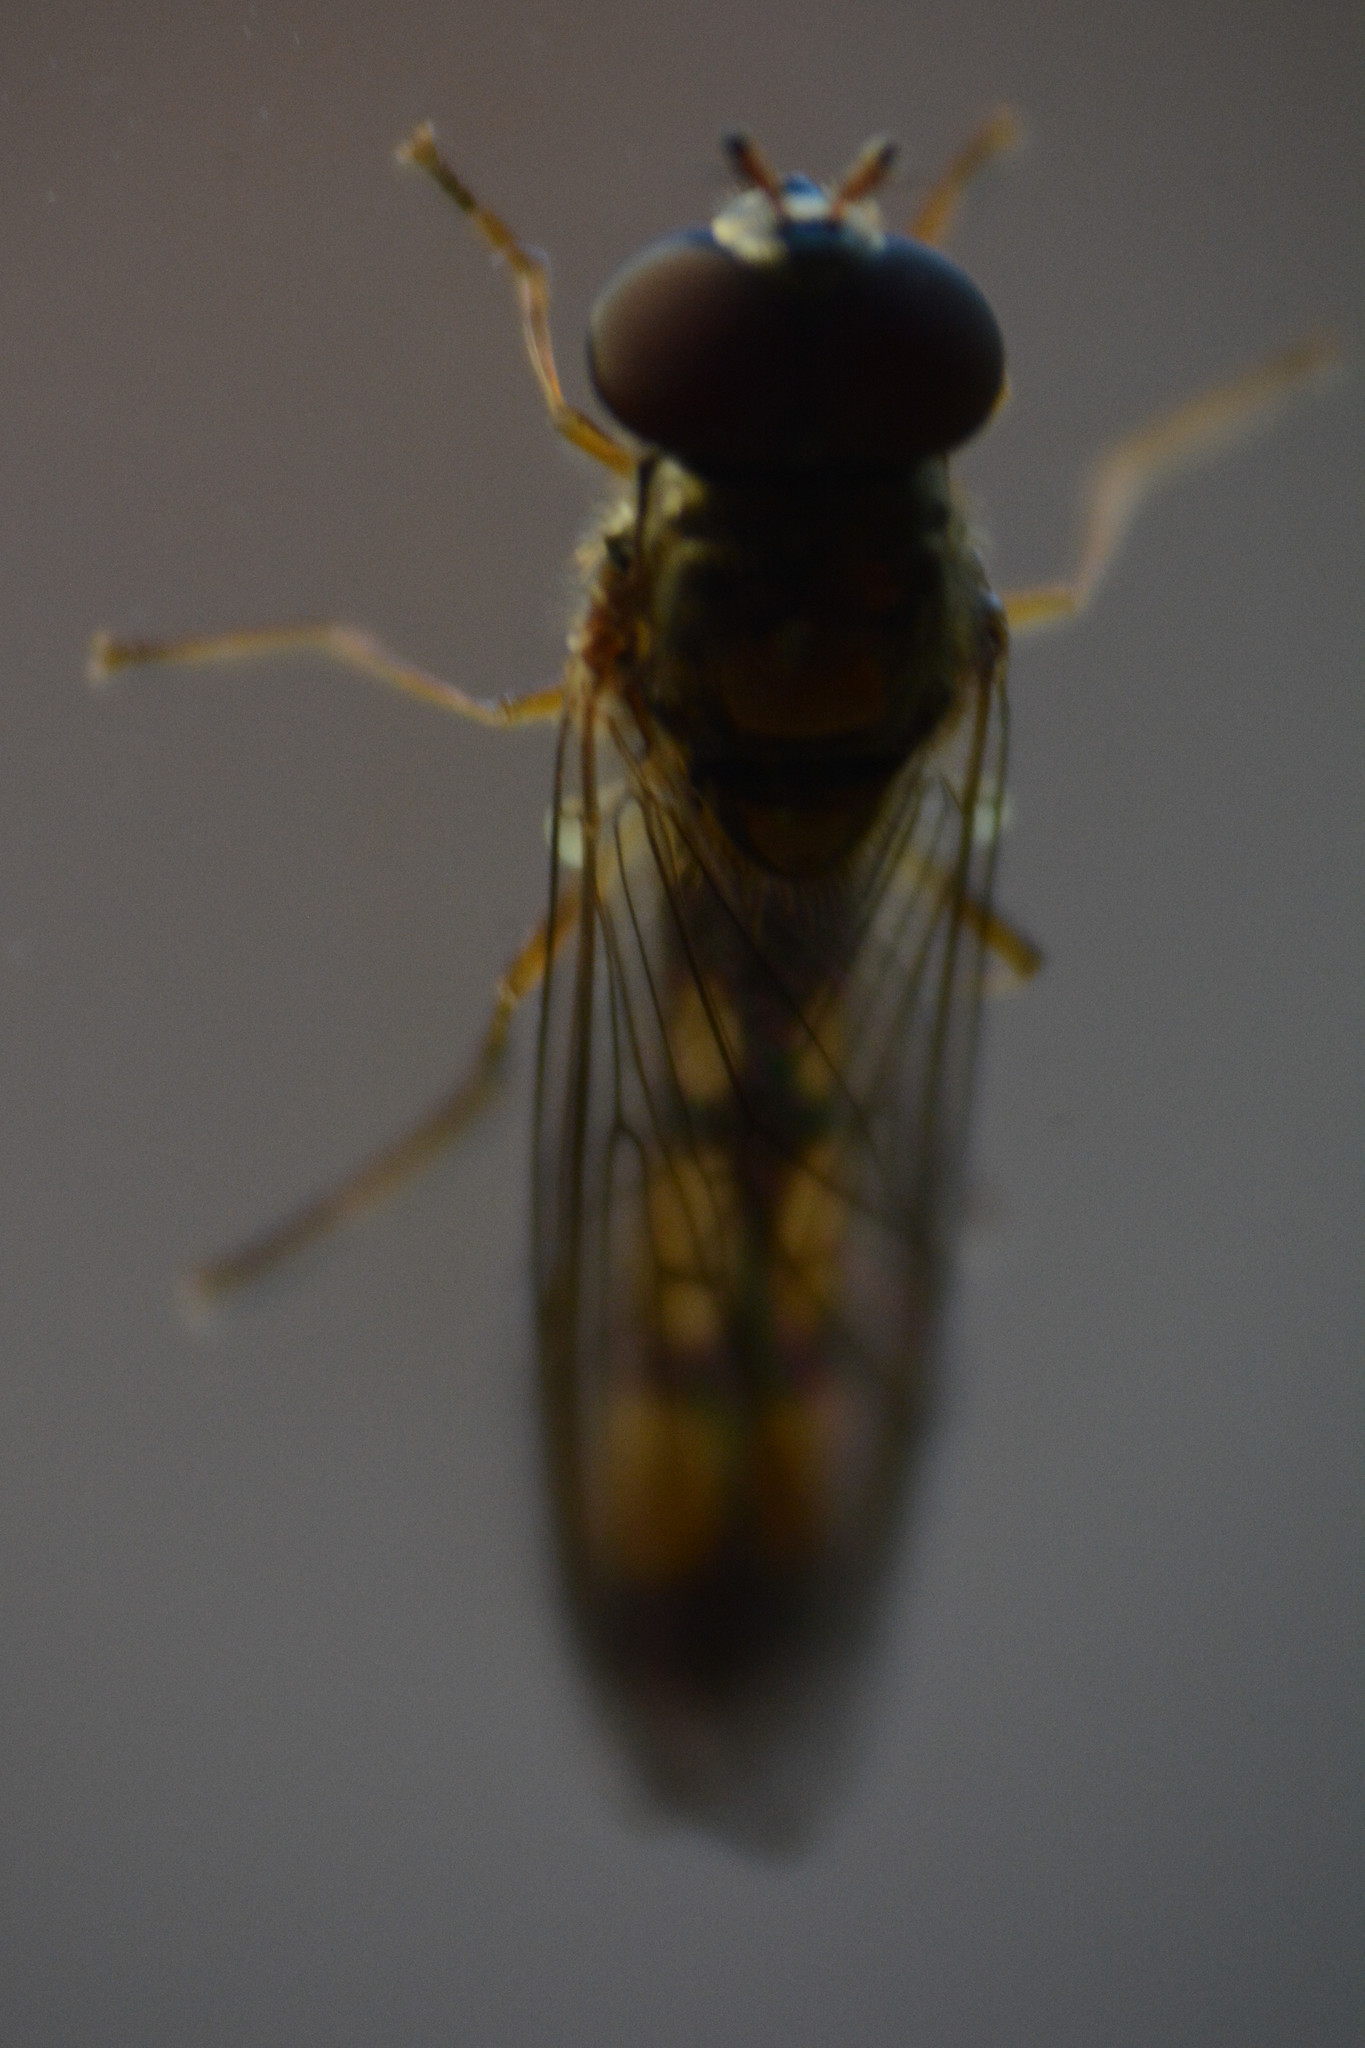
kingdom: Animalia
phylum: Arthropoda
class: Insecta
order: Diptera
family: Syrphidae
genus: Melanostoma
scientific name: Melanostoma scalare
